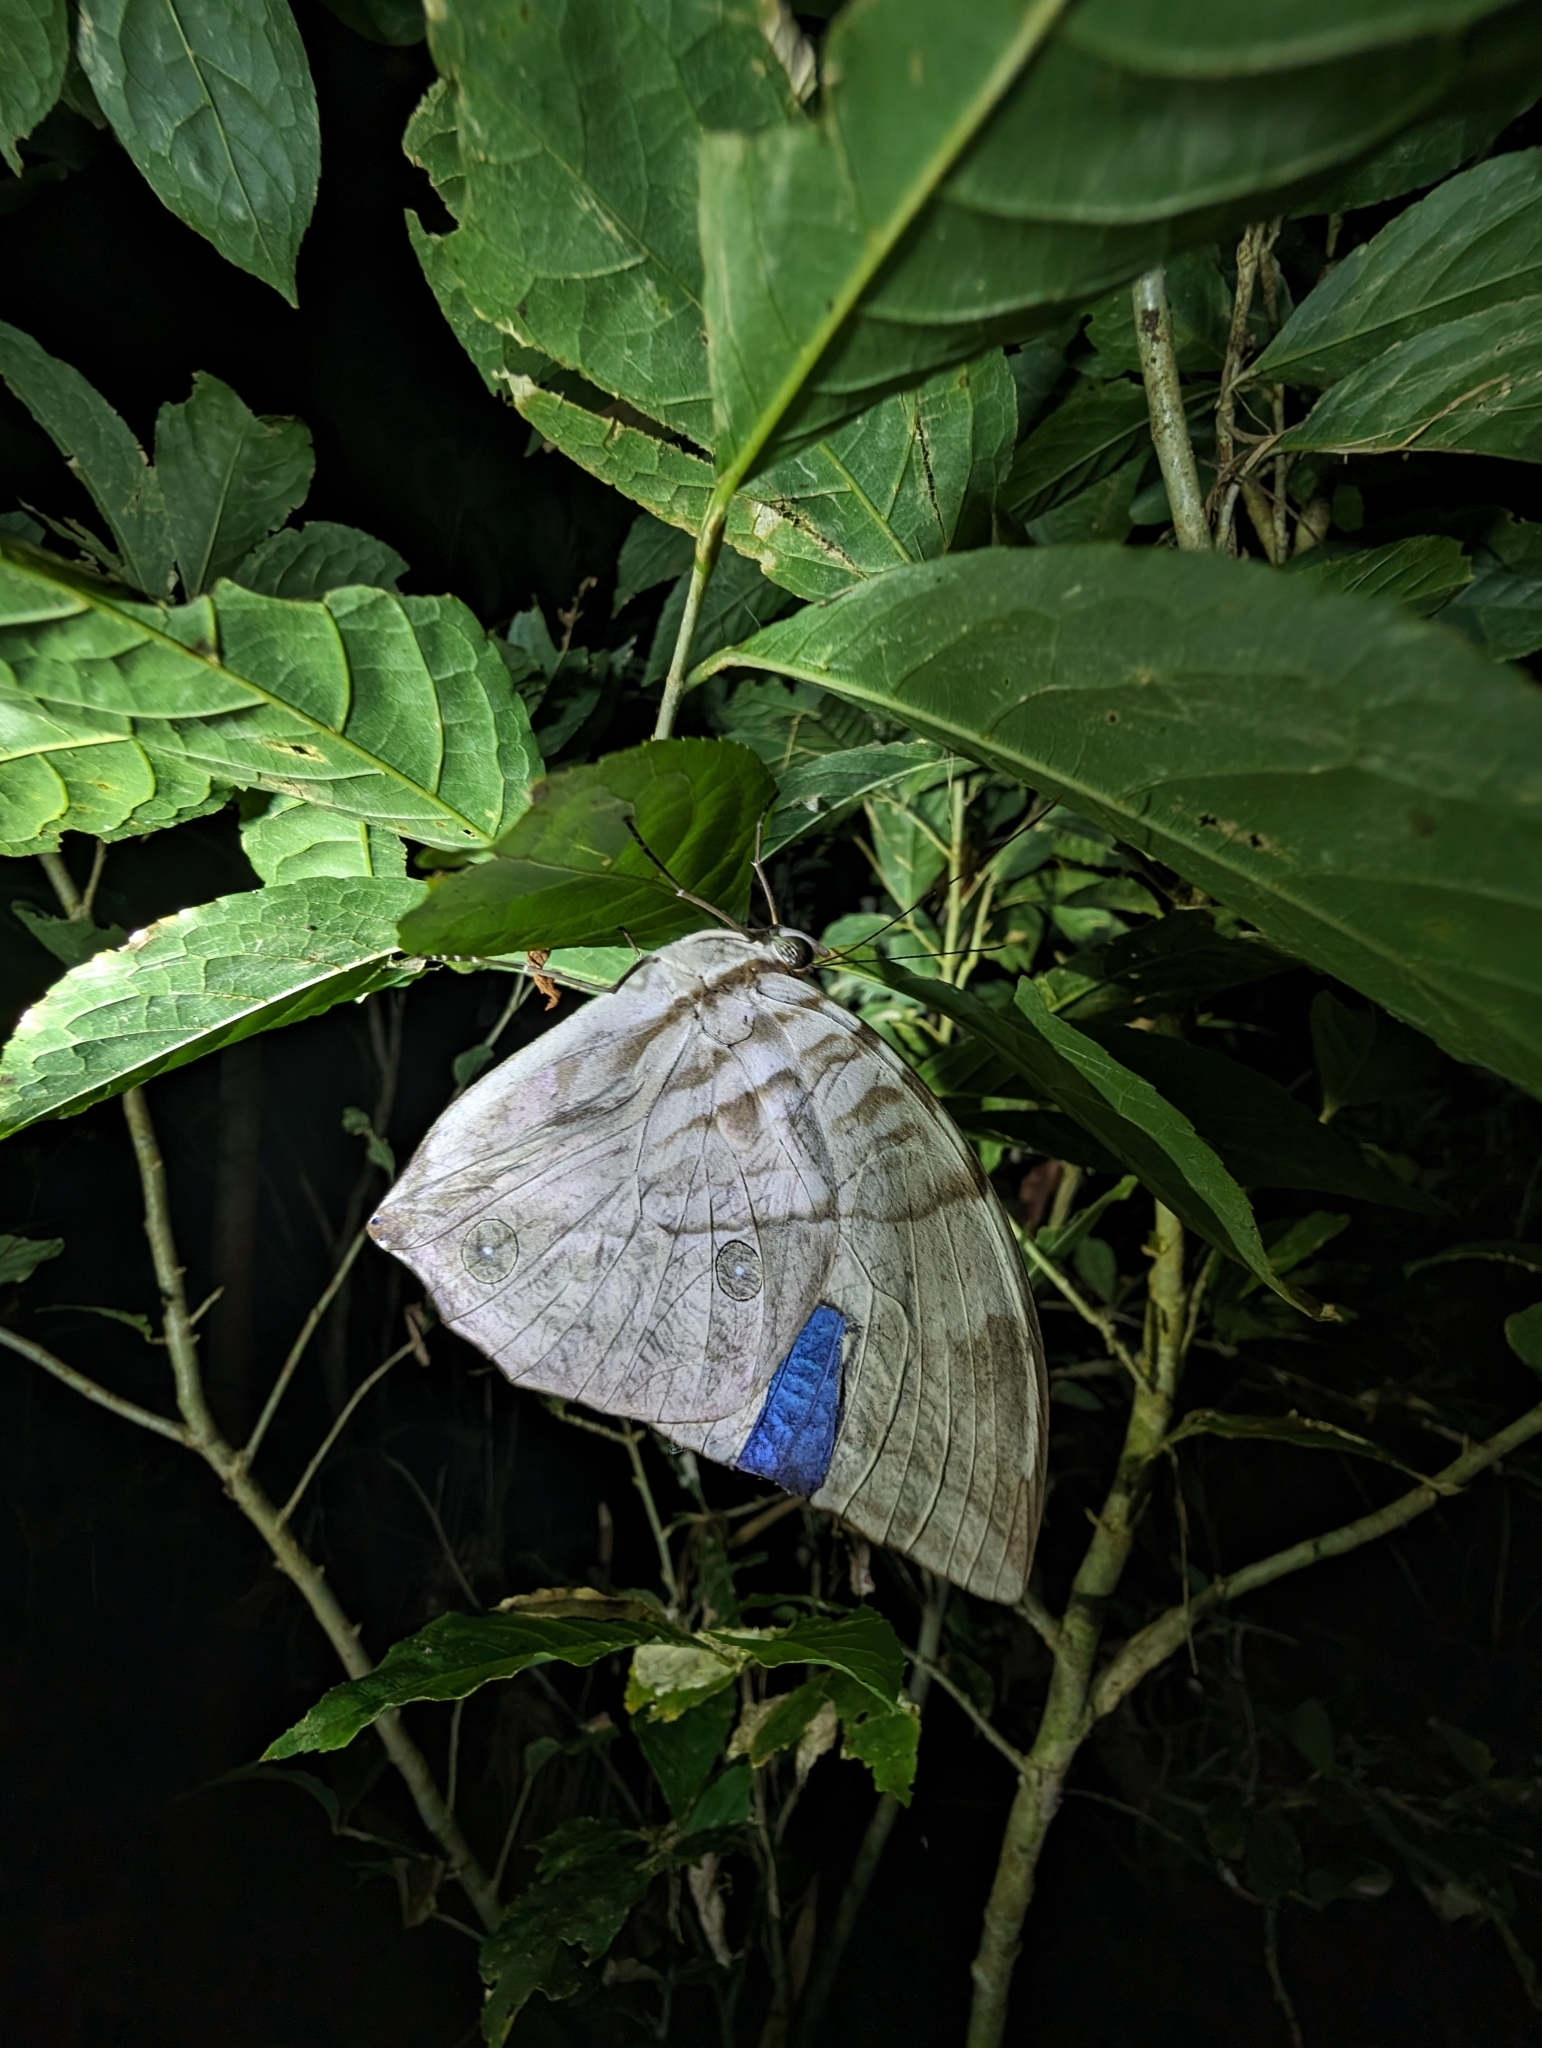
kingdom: Animalia
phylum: Arthropoda
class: Insecta
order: Lepidoptera
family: Nymphalidae
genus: Zeuxidia
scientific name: Zeuxidia aurelia
